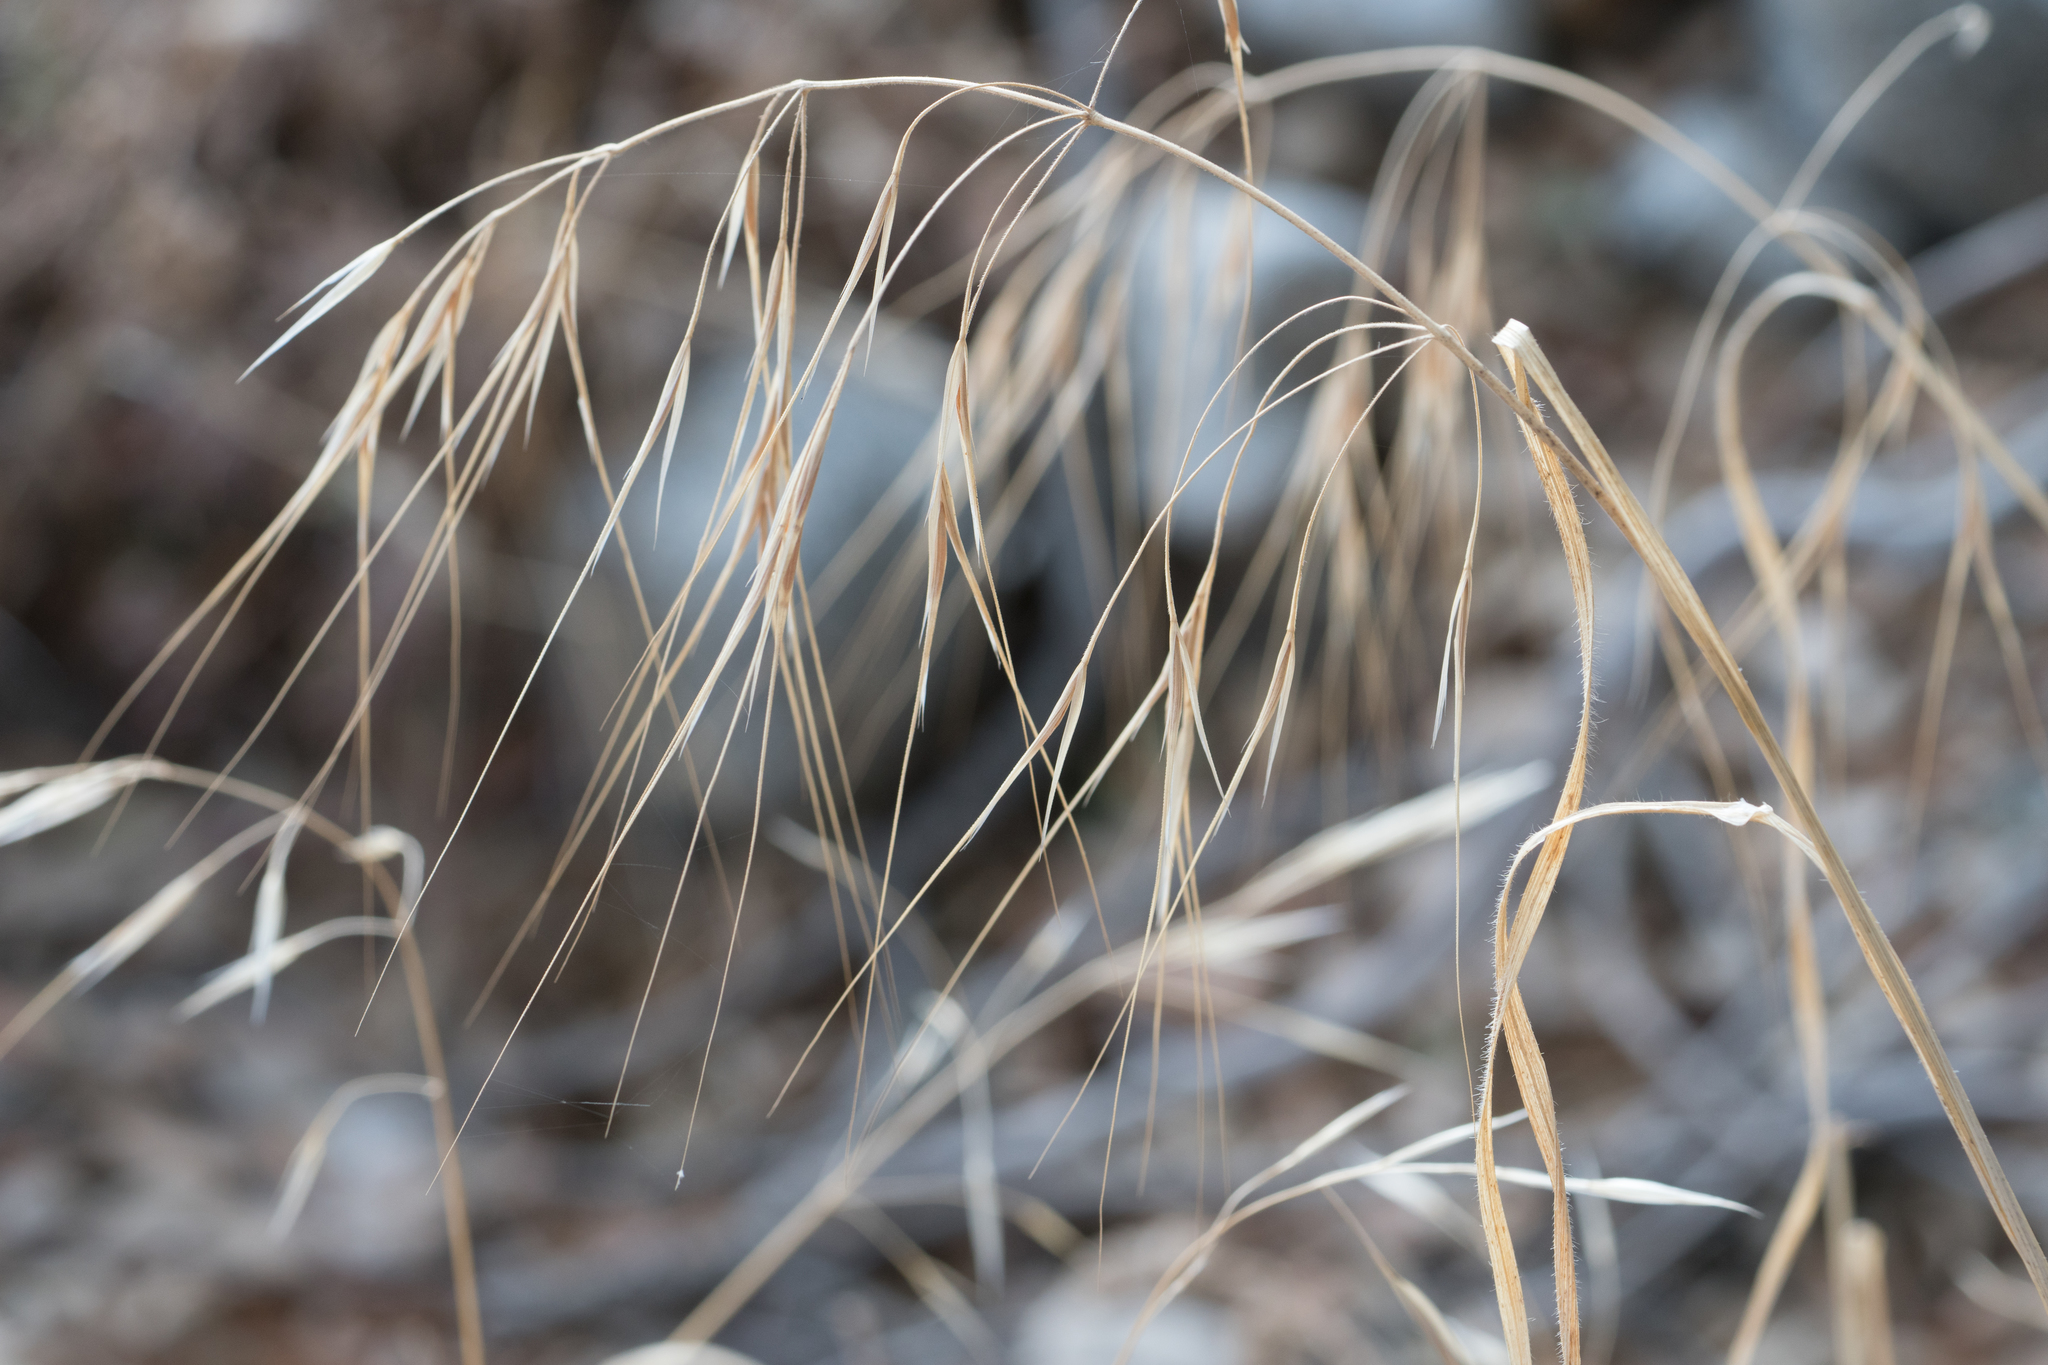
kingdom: Plantae
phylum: Tracheophyta
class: Liliopsida
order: Poales
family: Poaceae
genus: Bromus
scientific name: Bromus diandrus
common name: Ripgut brome
